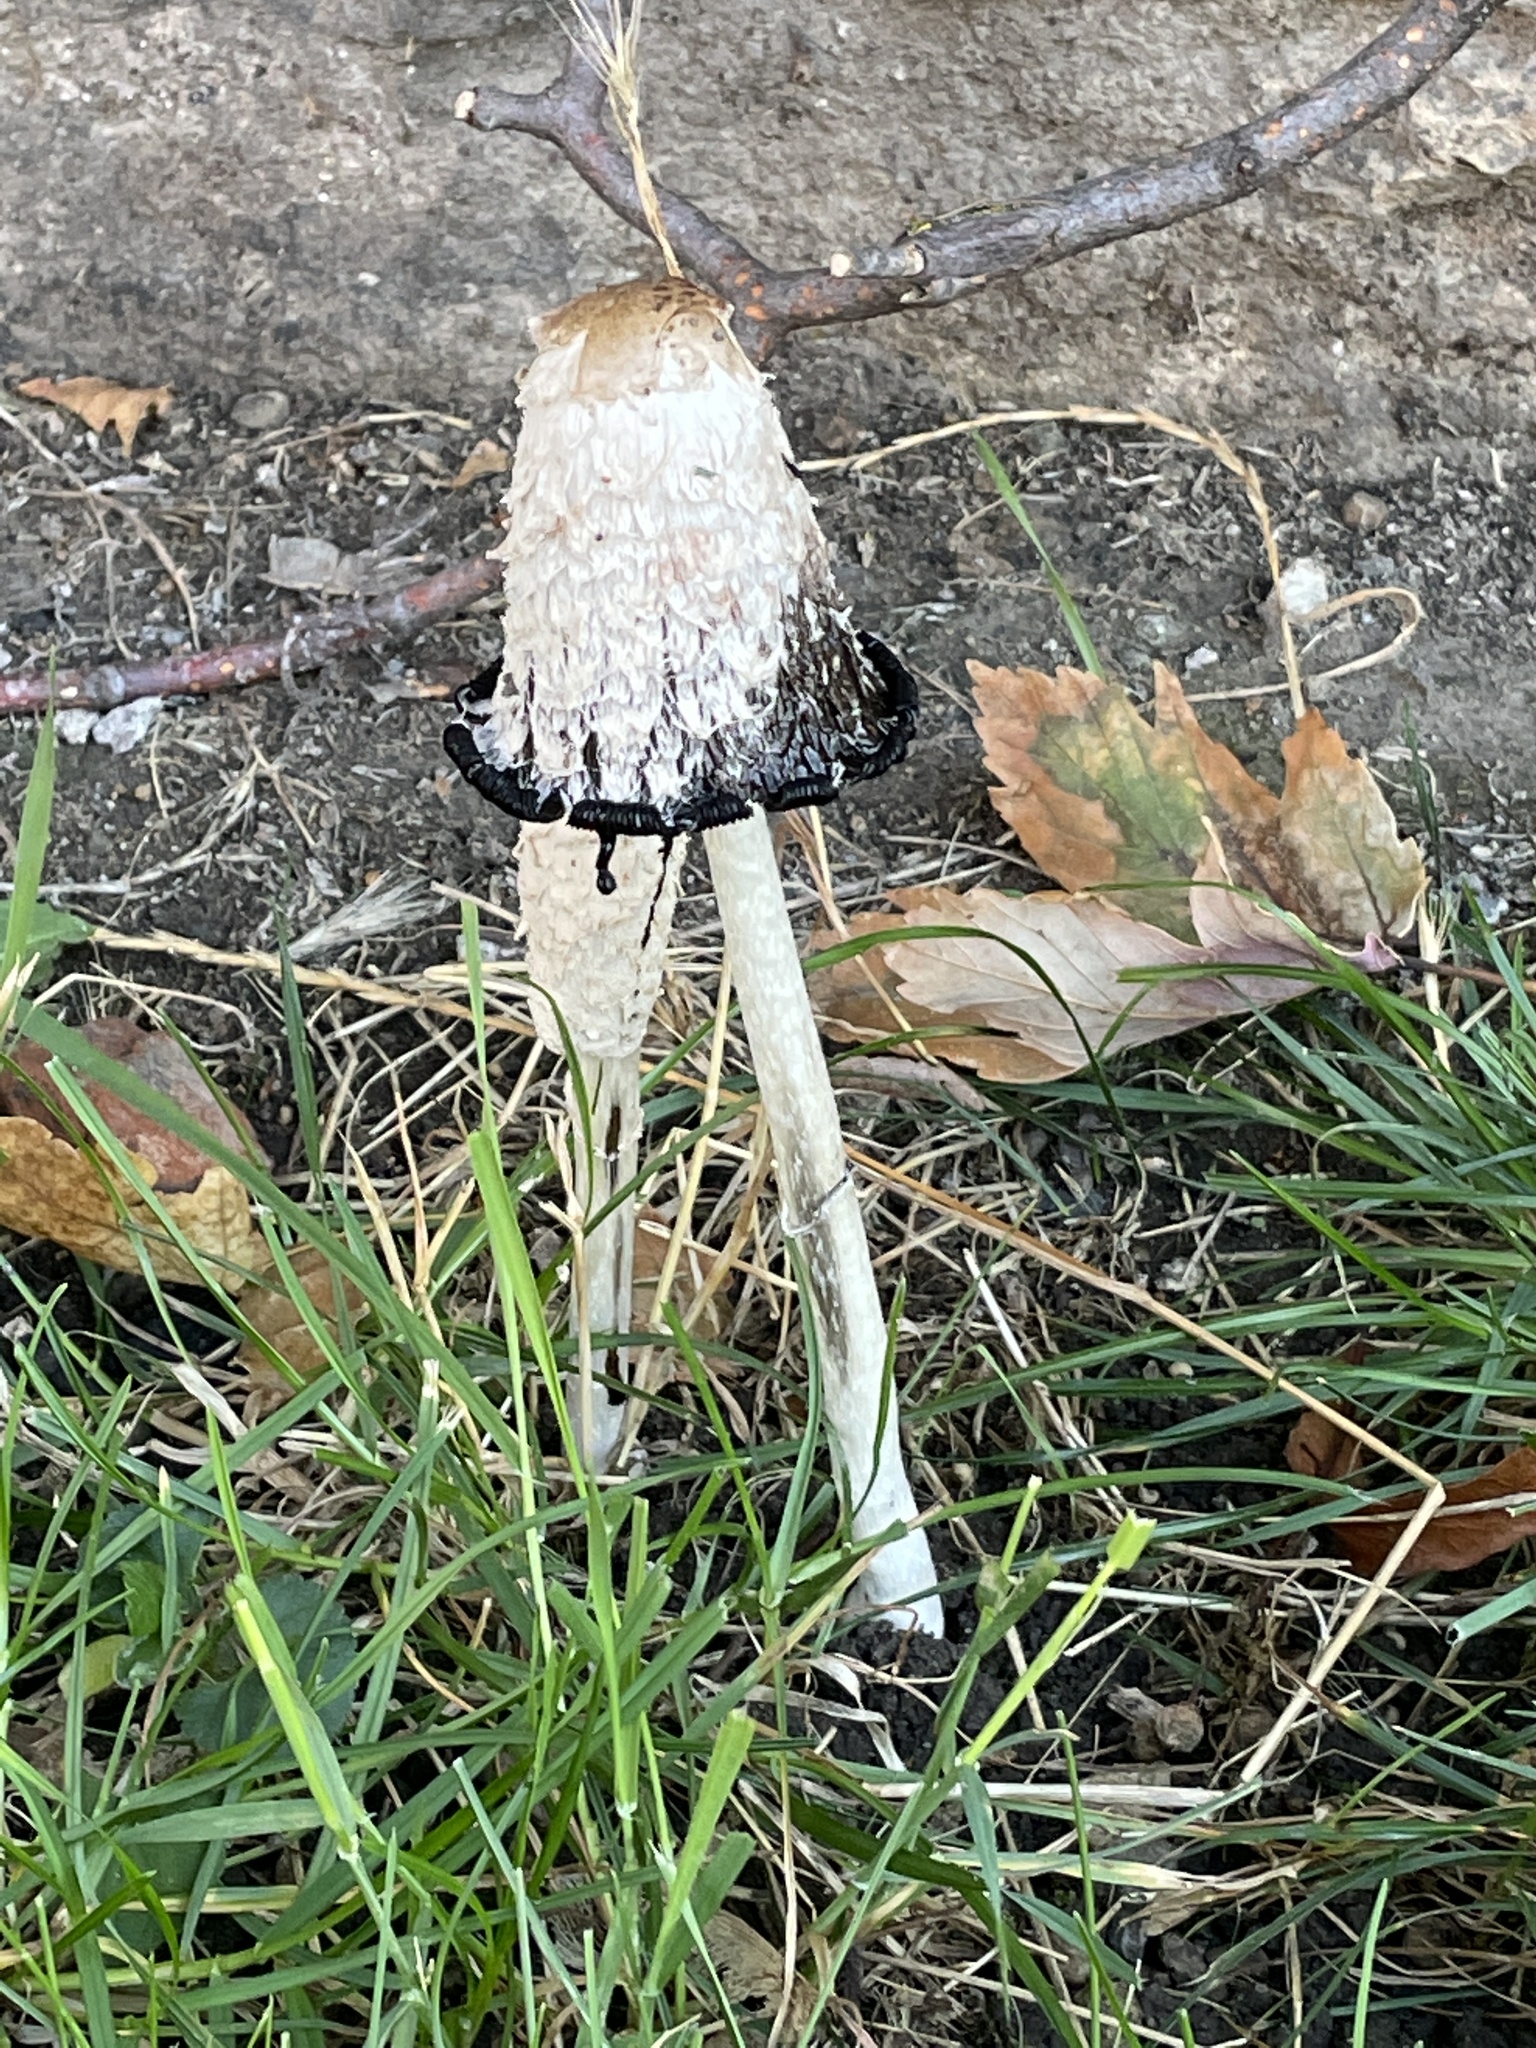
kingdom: Fungi
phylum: Basidiomycota
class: Agaricomycetes
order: Agaricales
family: Agaricaceae
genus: Coprinus
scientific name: Coprinus comatus
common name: Lawyer's wig
